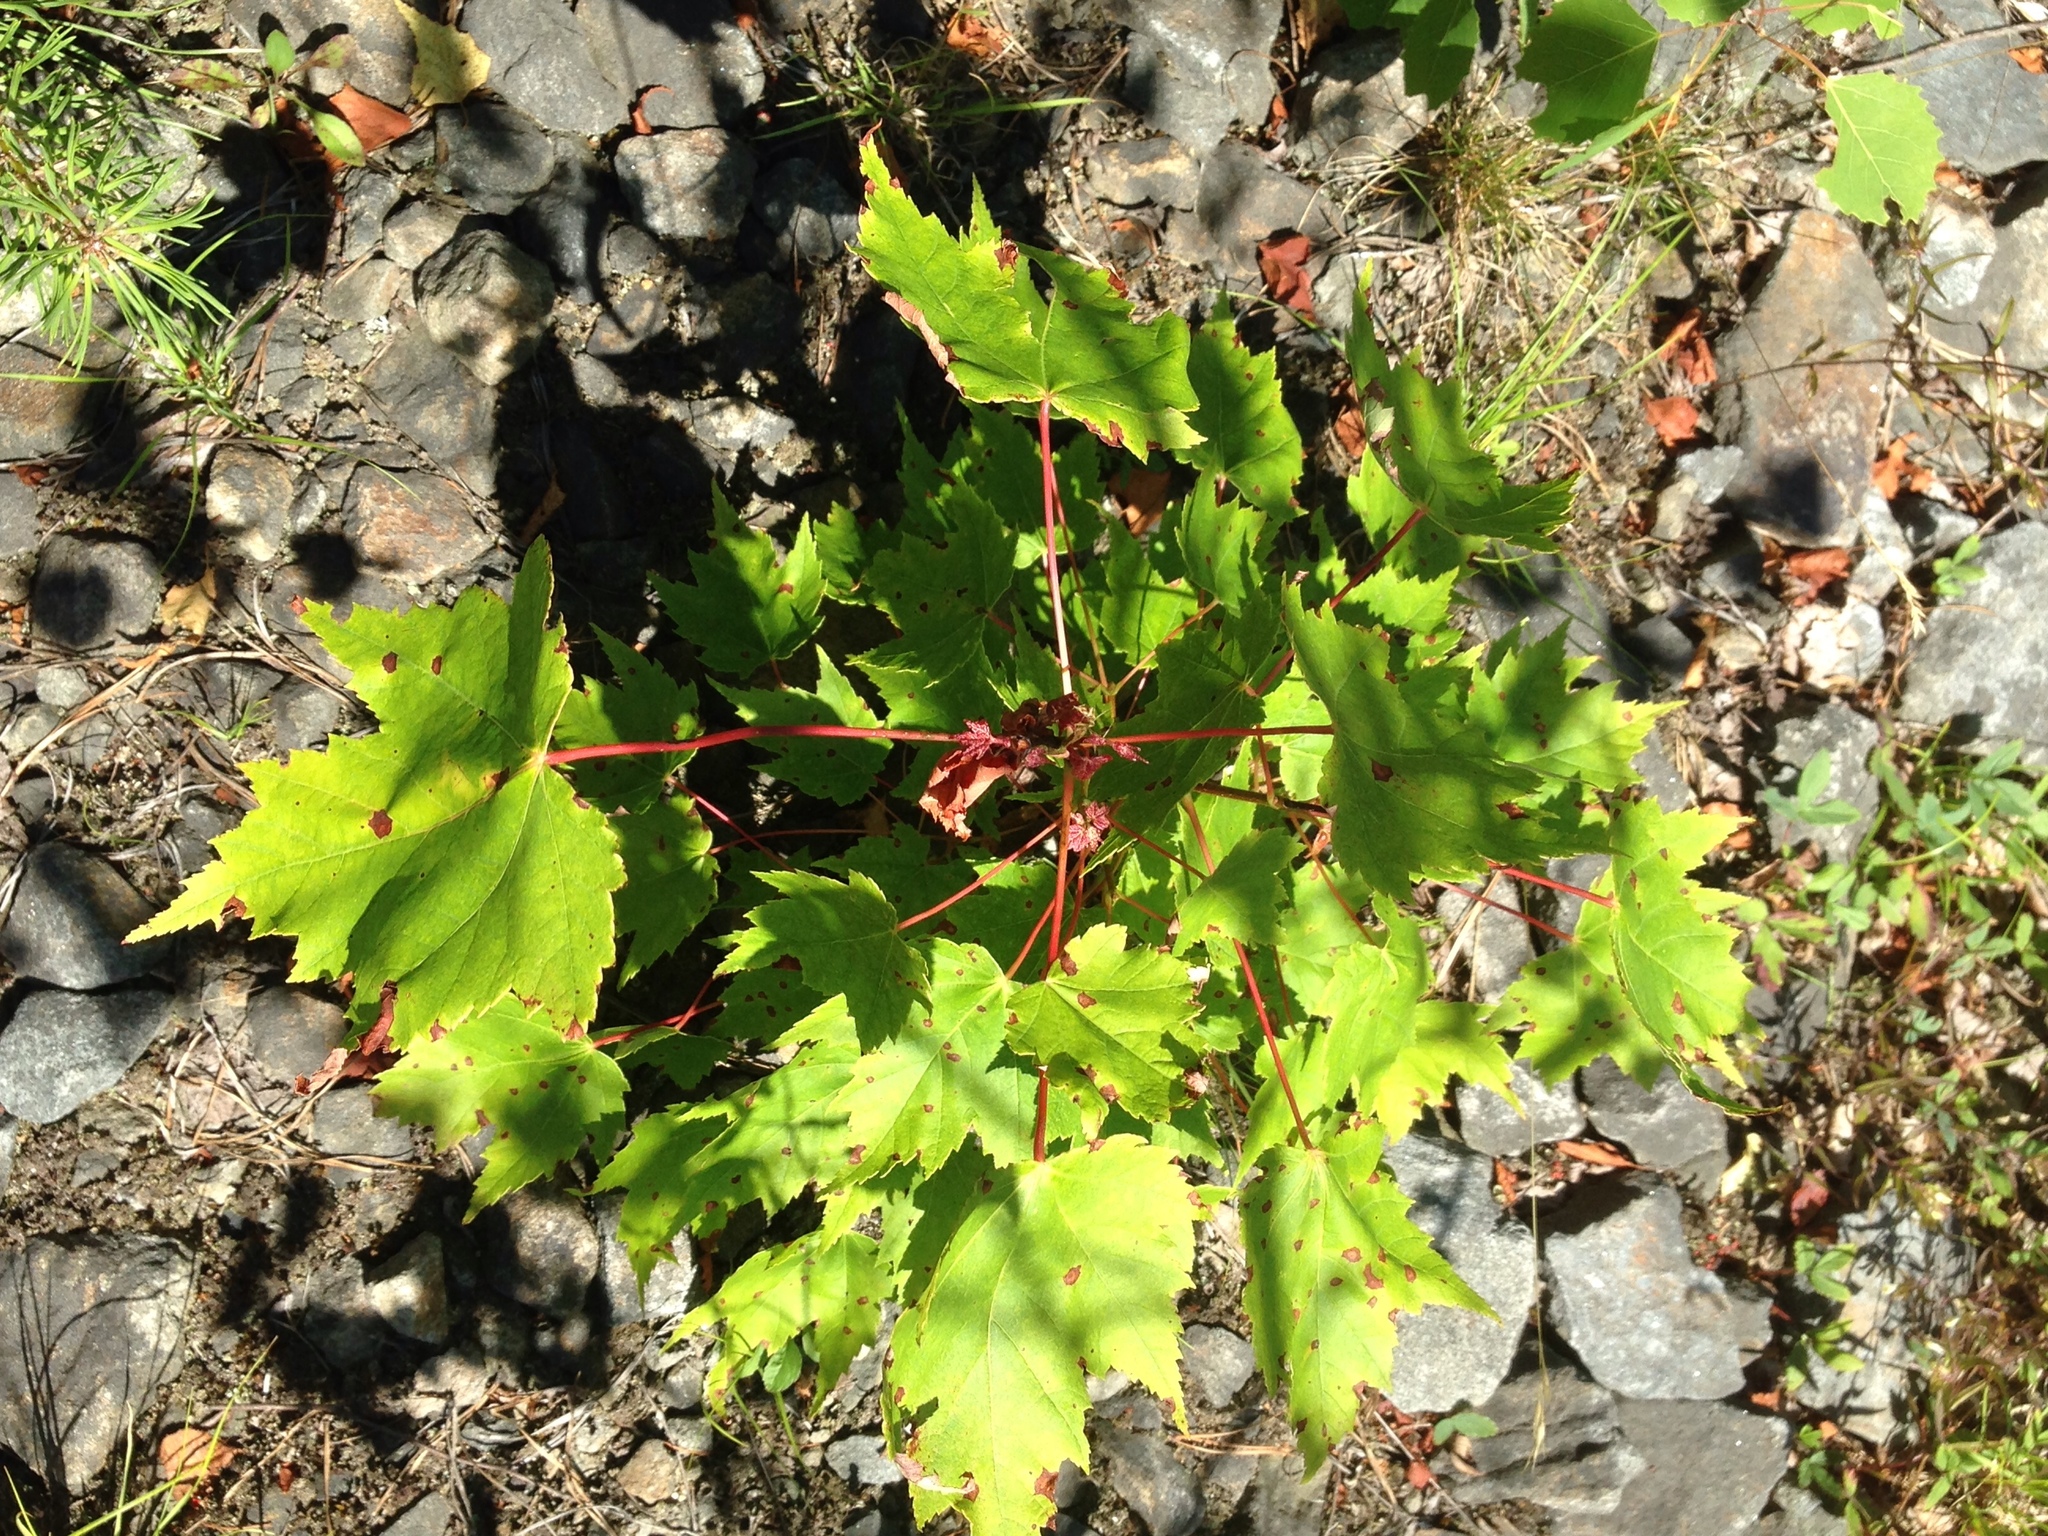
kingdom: Plantae
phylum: Tracheophyta
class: Magnoliopsida
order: Sapindales
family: Sapindaceae
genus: Acer
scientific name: Acer rubrum
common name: Red maple
